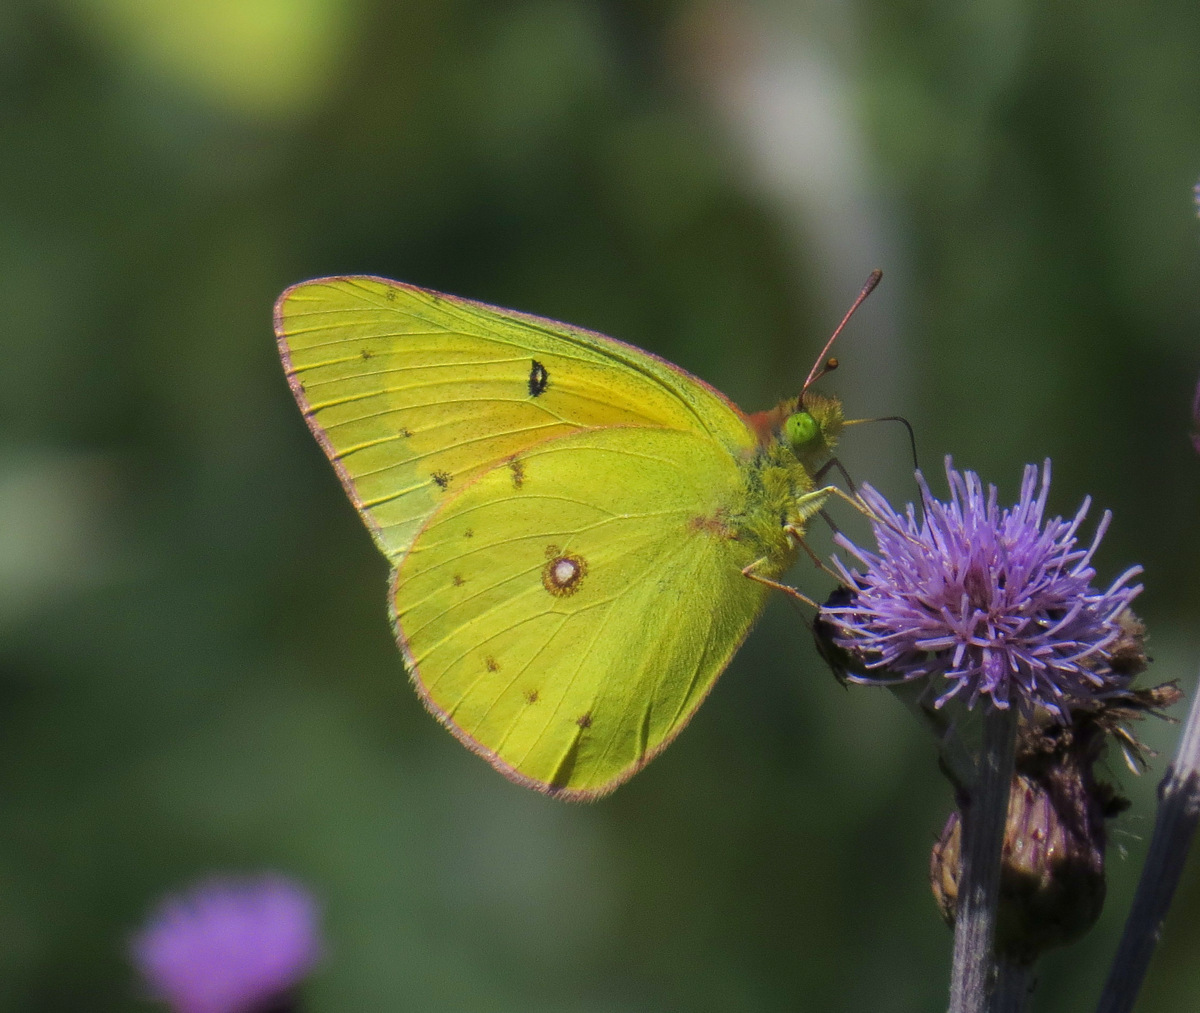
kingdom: Animalia
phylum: Arthropoda
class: Insecta
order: Lepidoptera
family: Pieridae
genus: Colias
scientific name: Colias eurytheme
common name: Alfalfa butterfly
